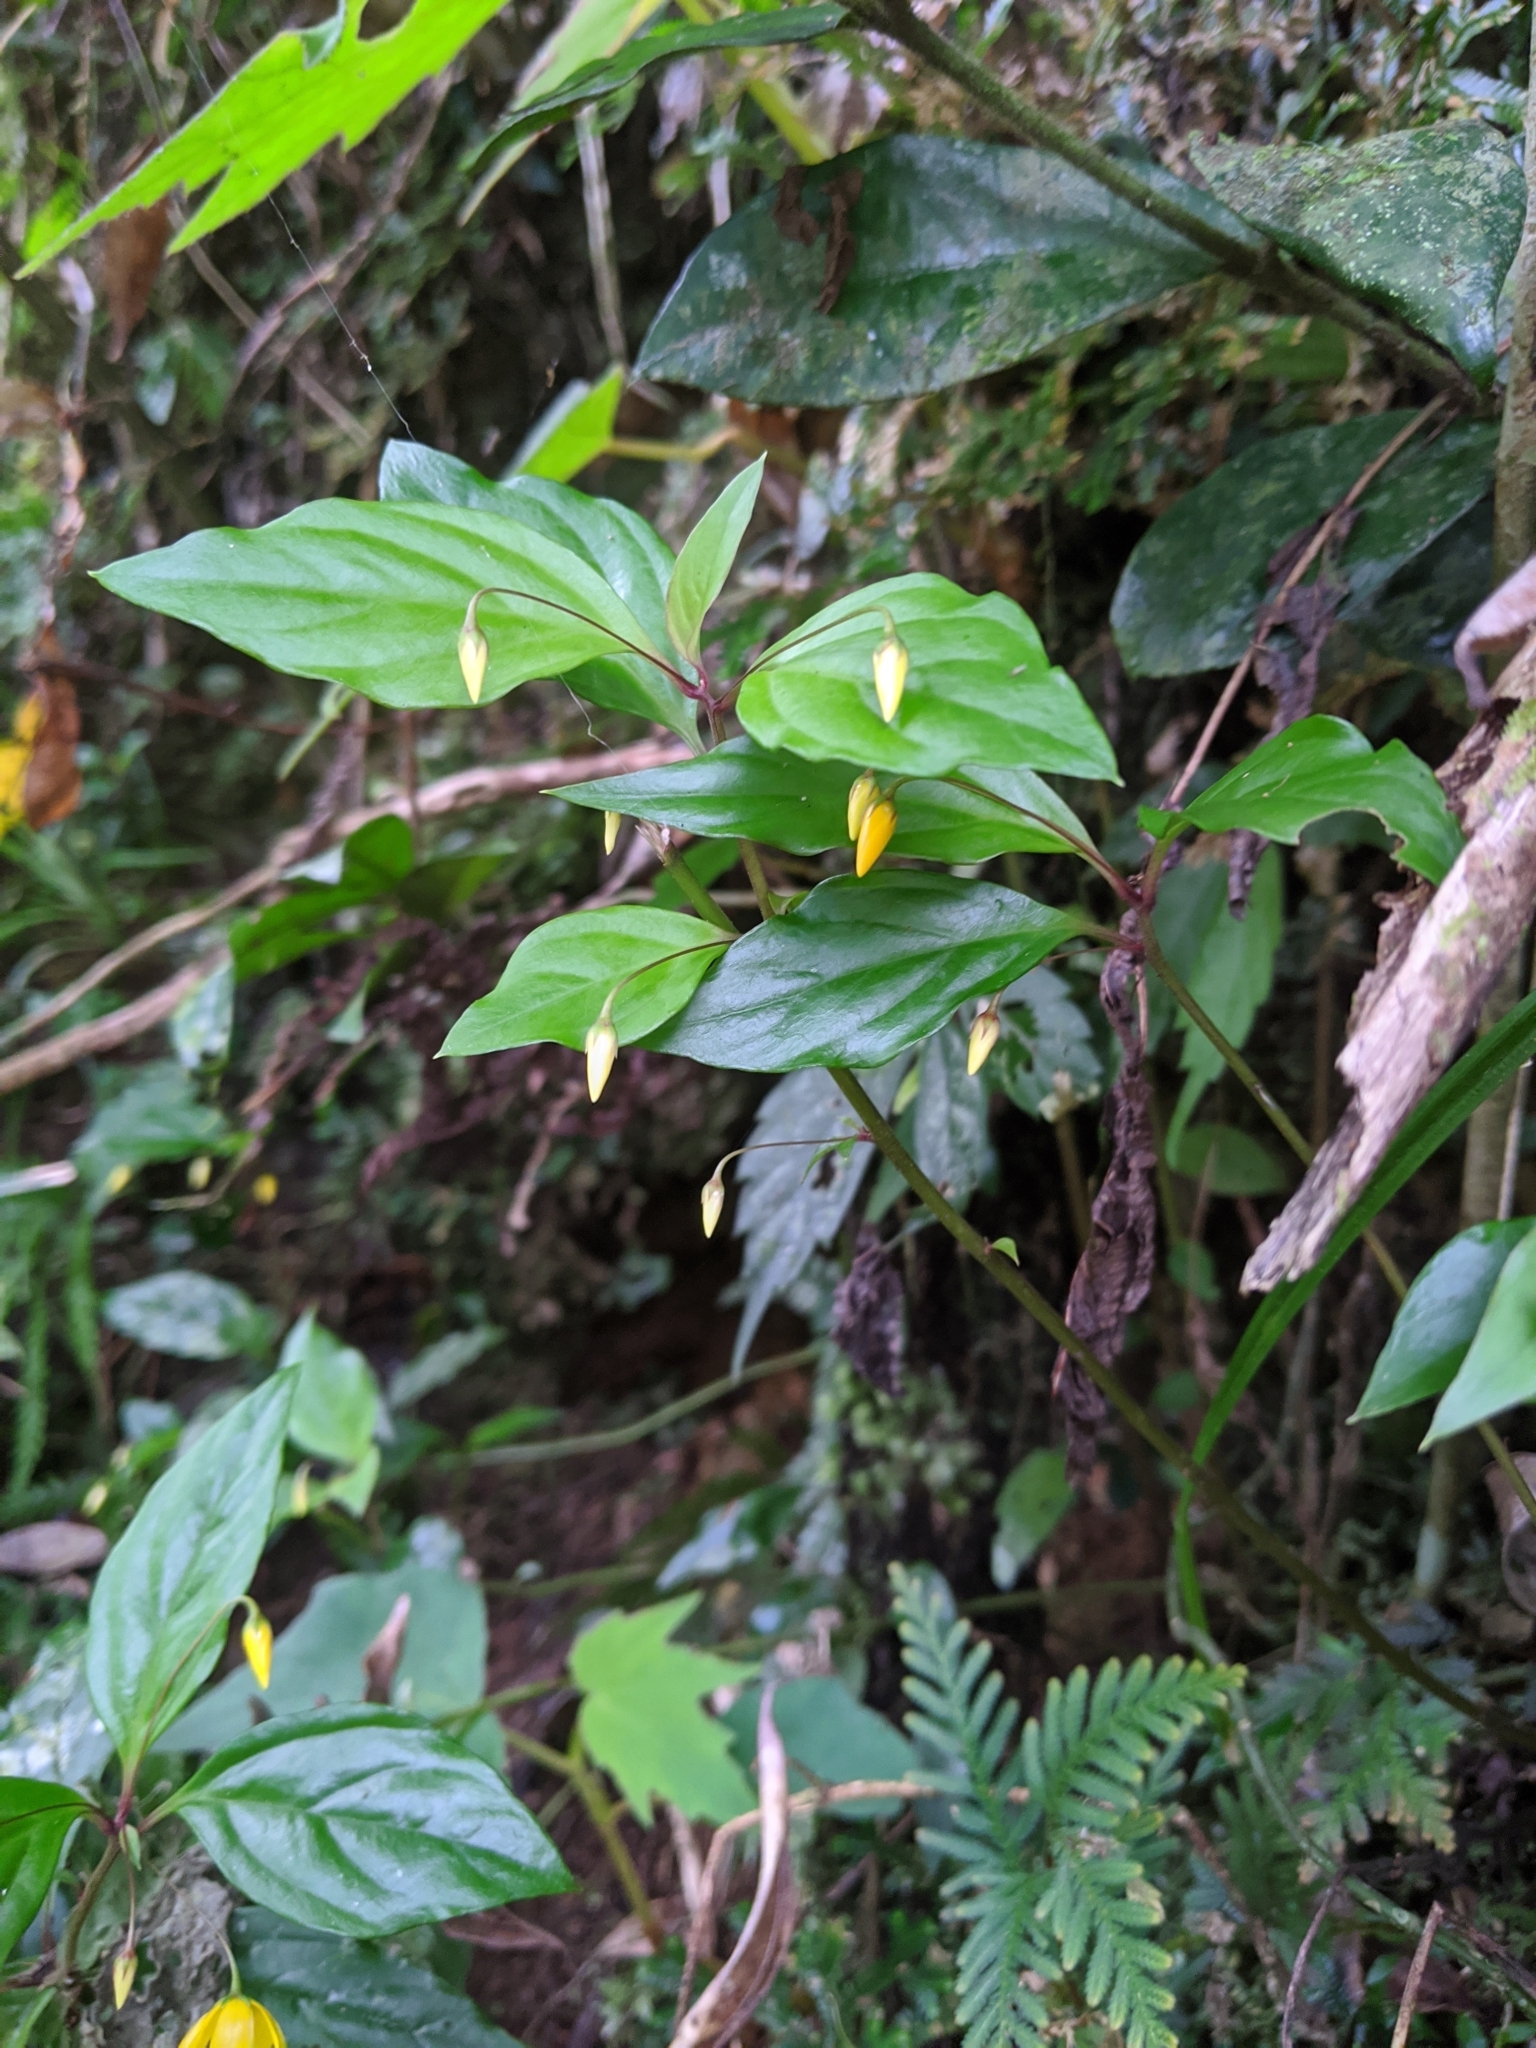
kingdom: Plantae
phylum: Tracheophyta
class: Magnoliopsida
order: Ericales
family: Primulaceae
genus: Lysimachia
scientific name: Lysimachia ardisioides
